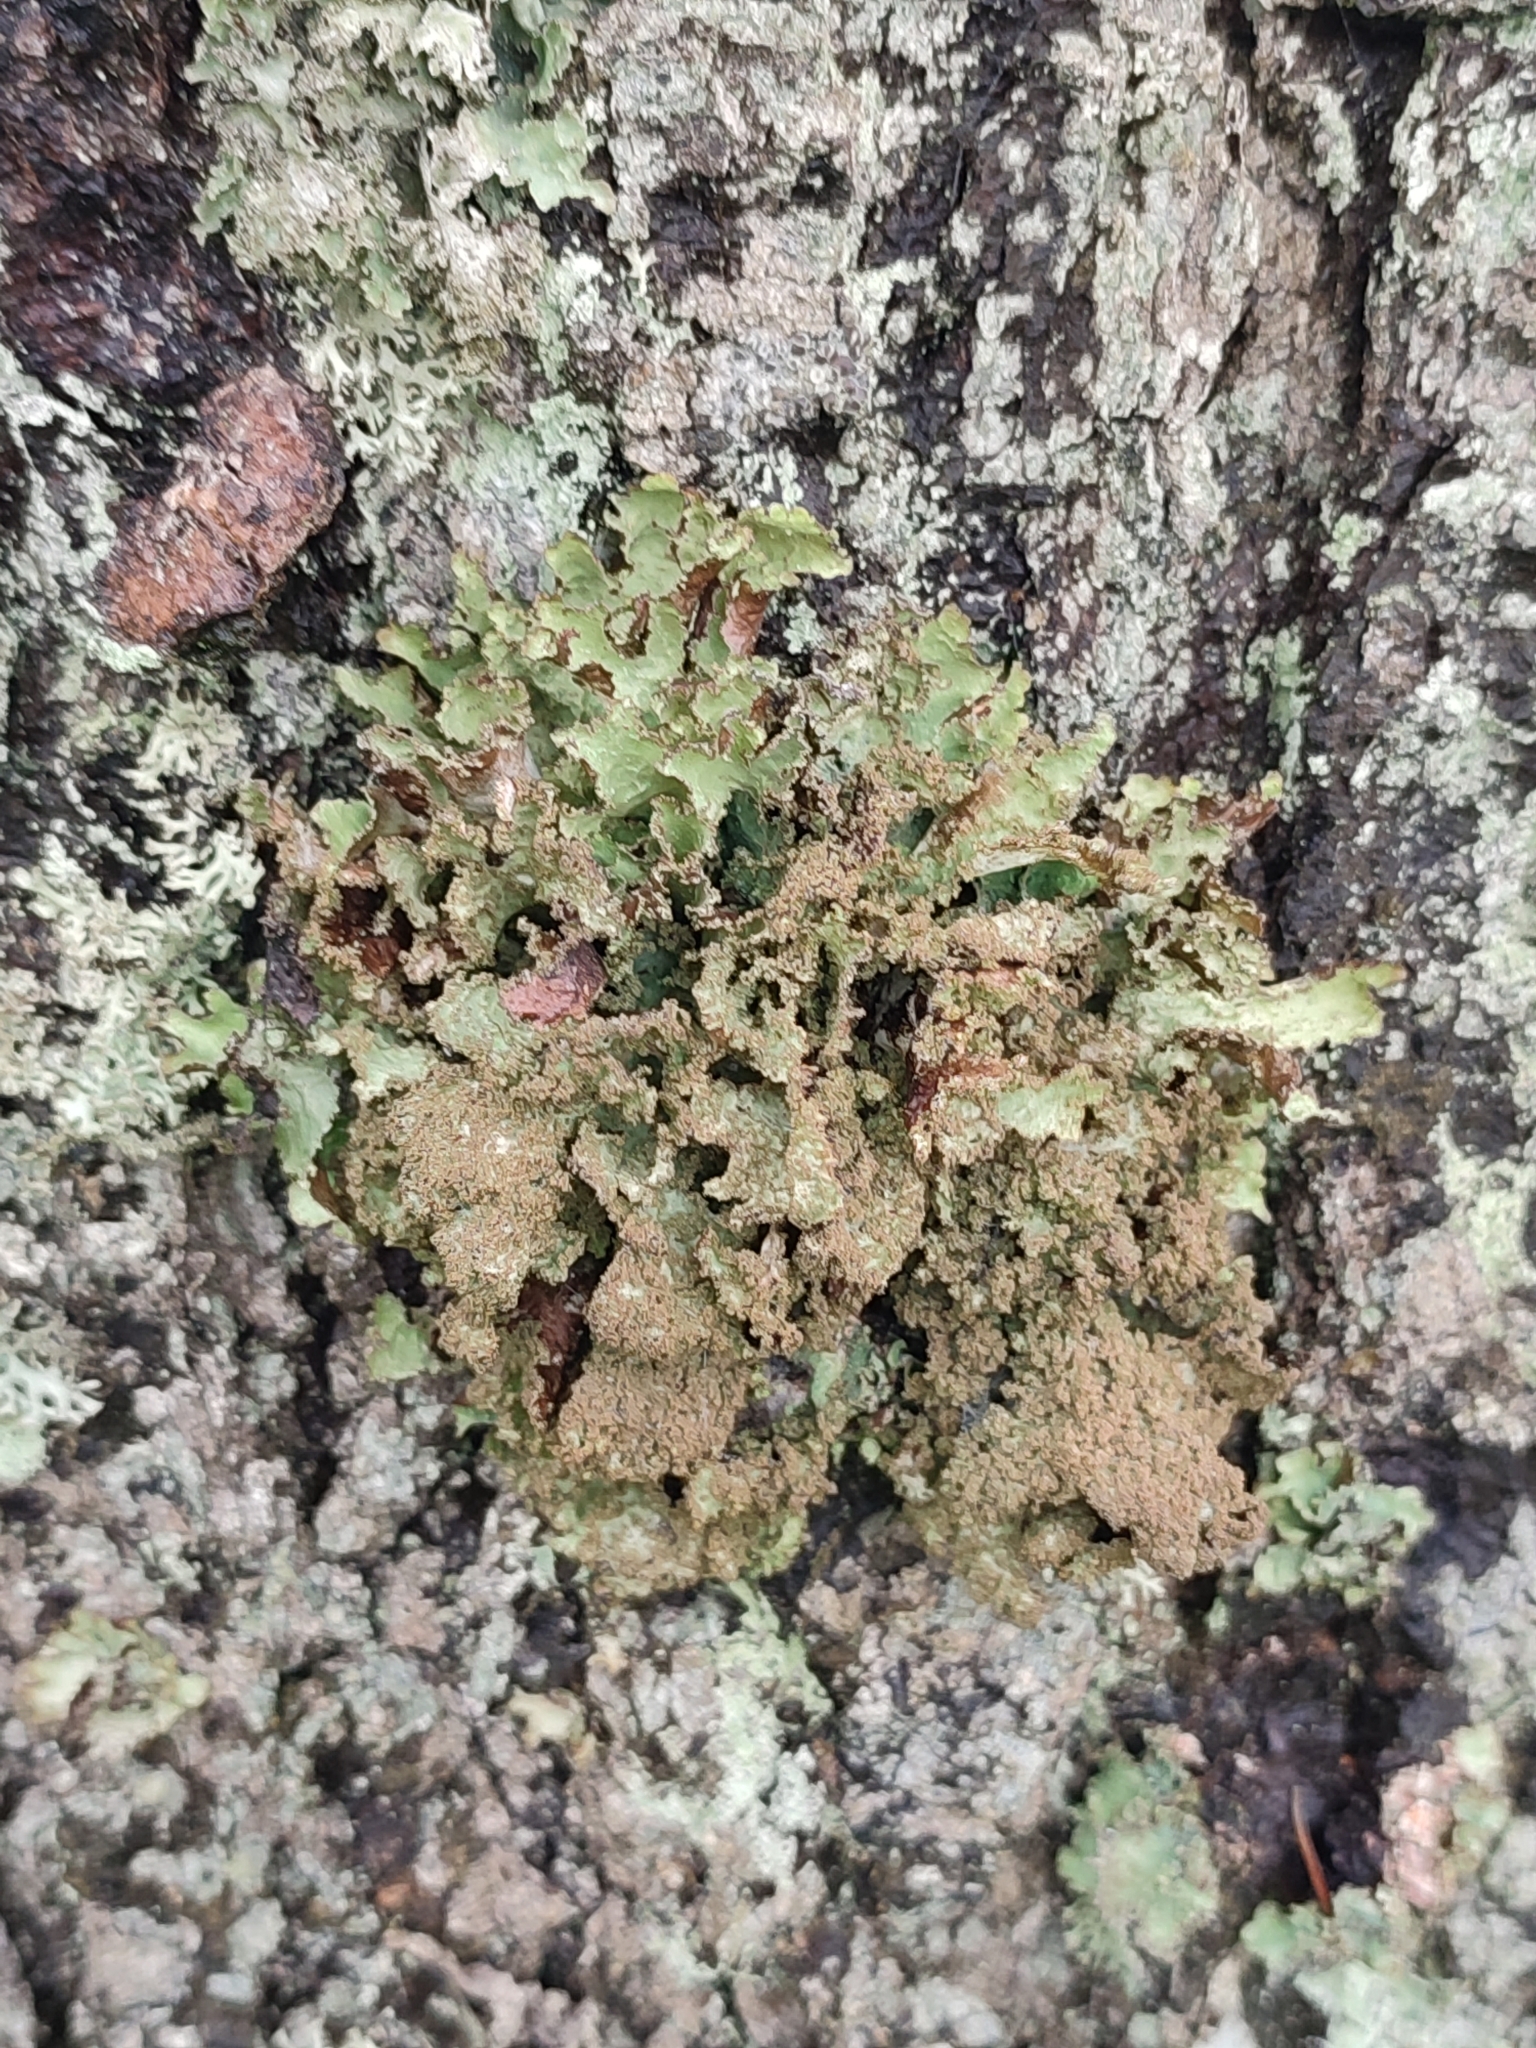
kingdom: Fungi
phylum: Ascomycota
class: Lecanoromycetes
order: Lecanorales
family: Parmeliaceae
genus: Platismatia
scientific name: Platismatia glauca
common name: Varied rag lichen
